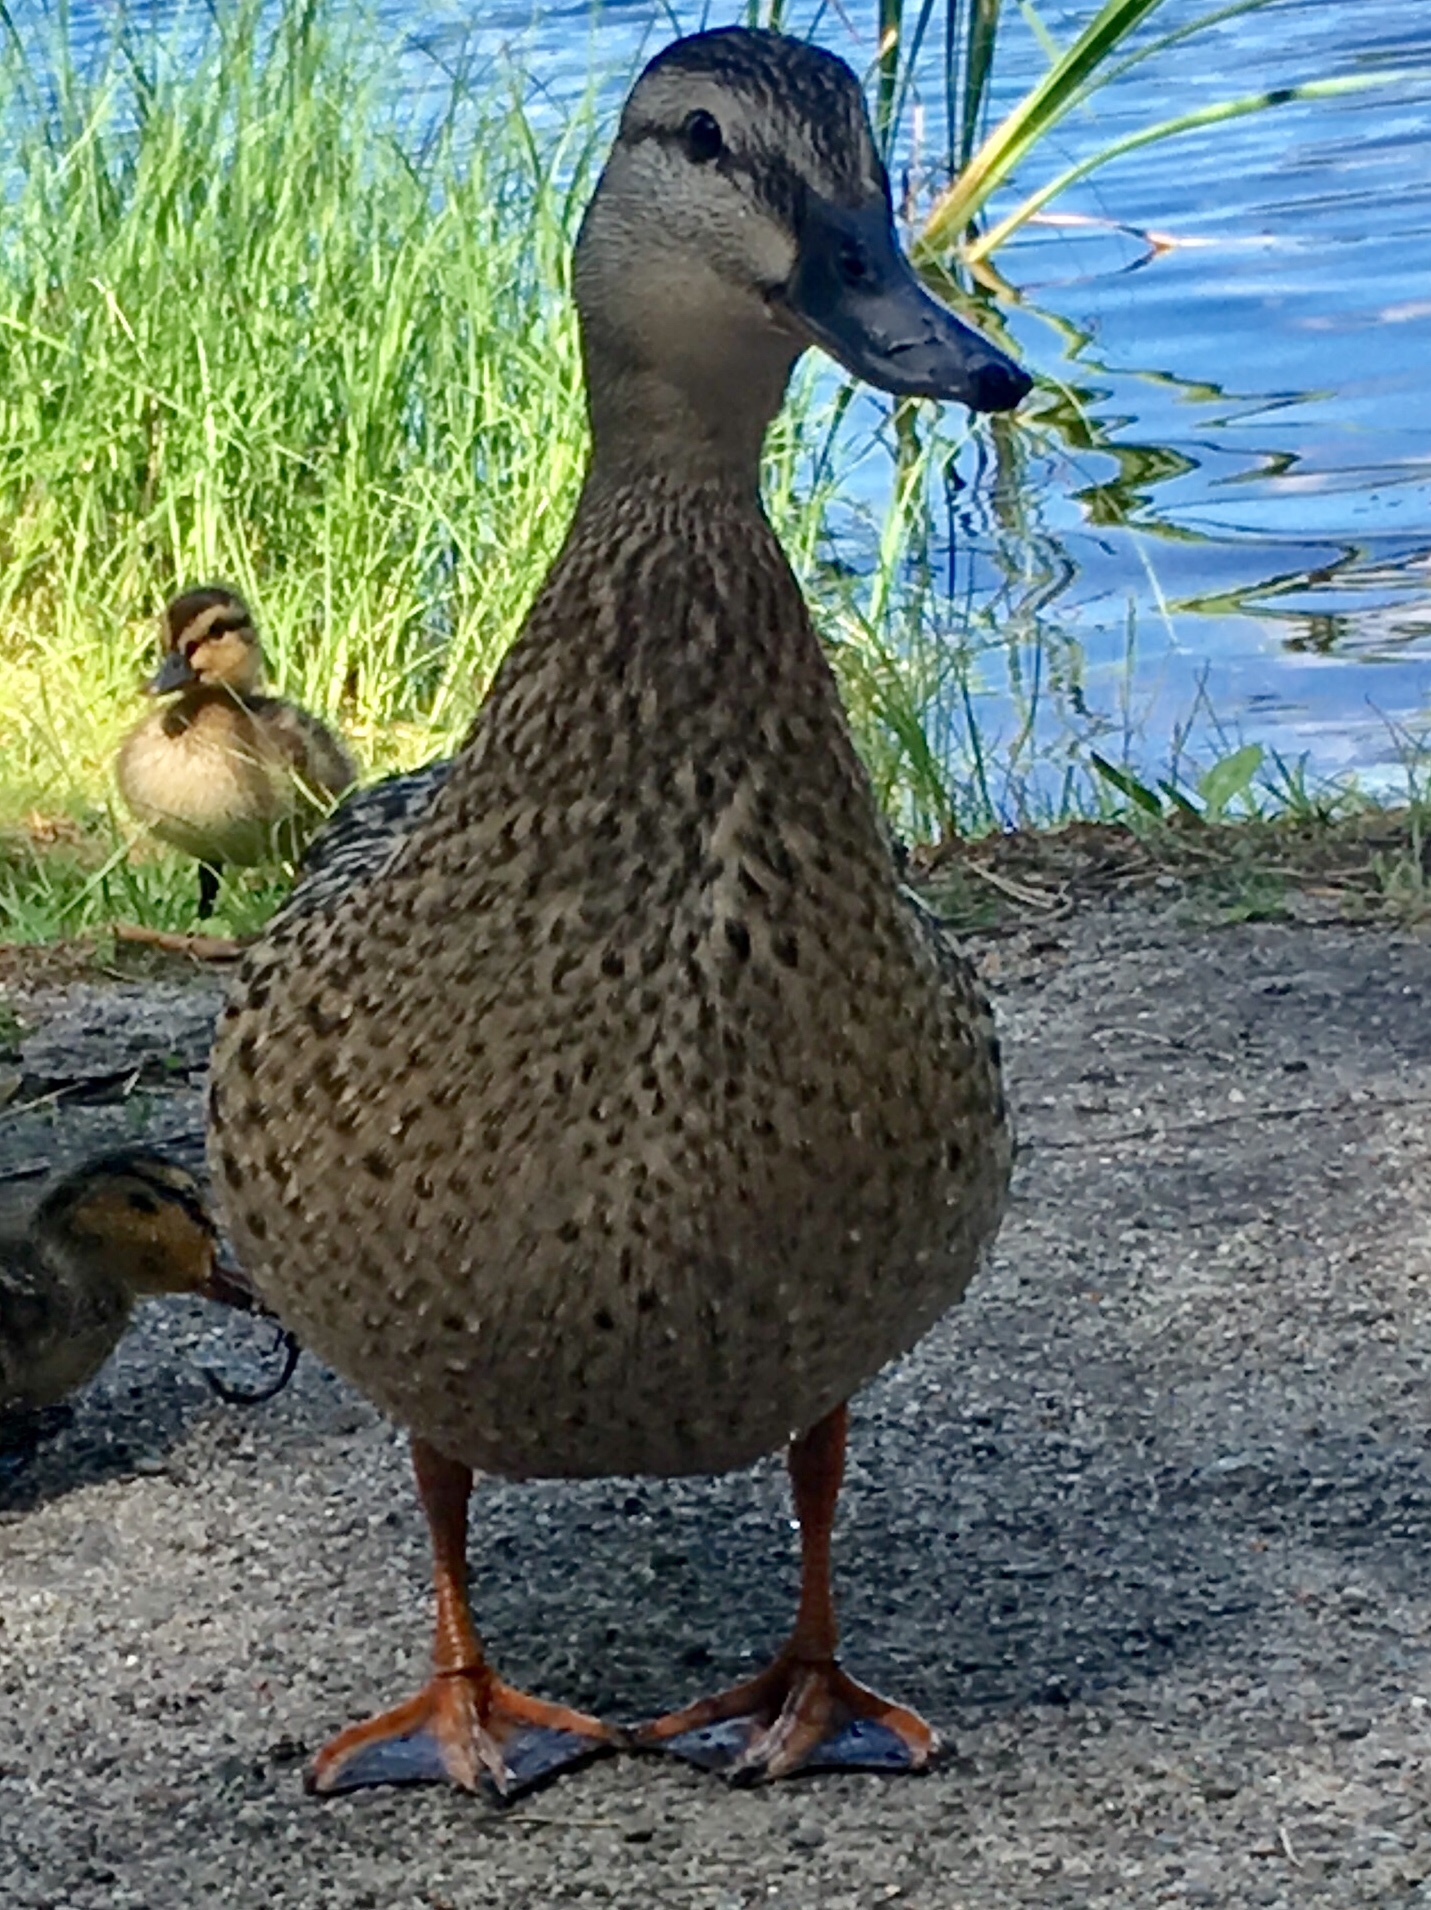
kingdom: Animalia
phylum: Chordata
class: Aves
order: Anseriformes
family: Anatidae
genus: Anas
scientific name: Anas platyrhynchos
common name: Mallard
